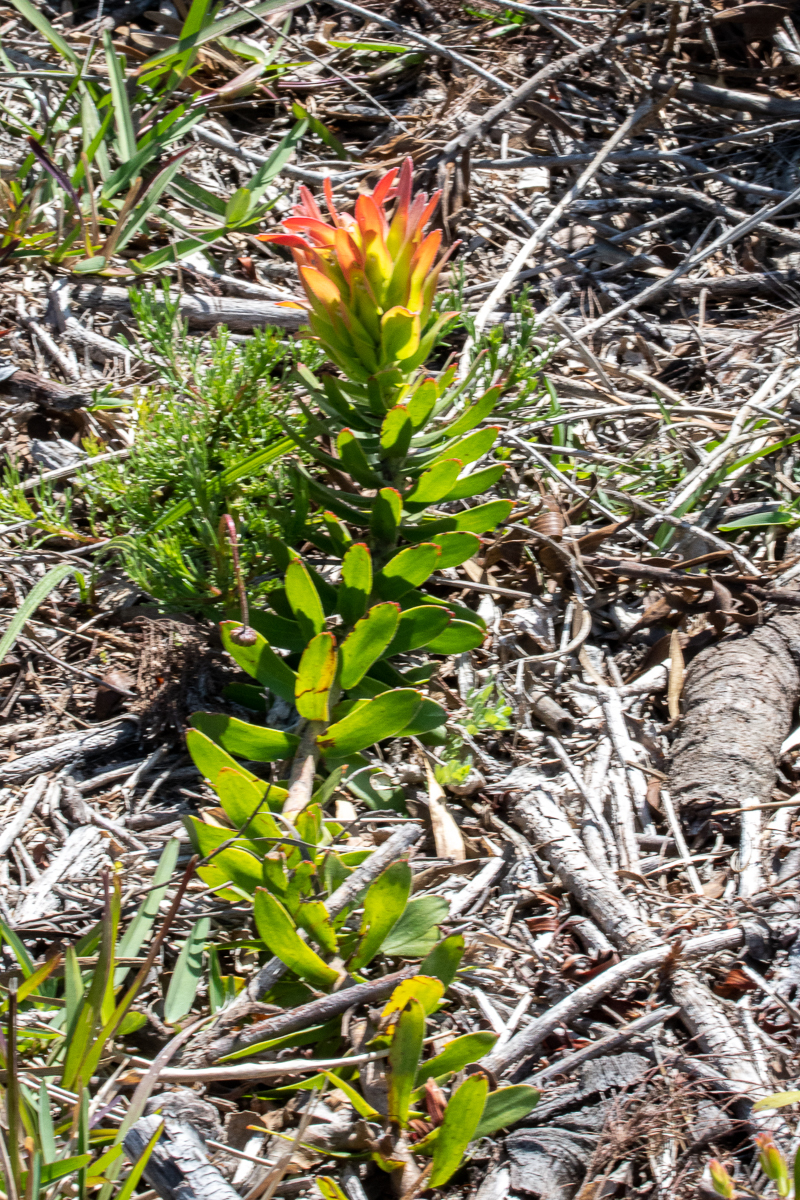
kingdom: Plantae
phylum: Tracheophyta
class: Magnoliopsida
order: Proteales
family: Proteaceae
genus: Mimetes
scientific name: Mimetes cucullatus
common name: Common pagoda
